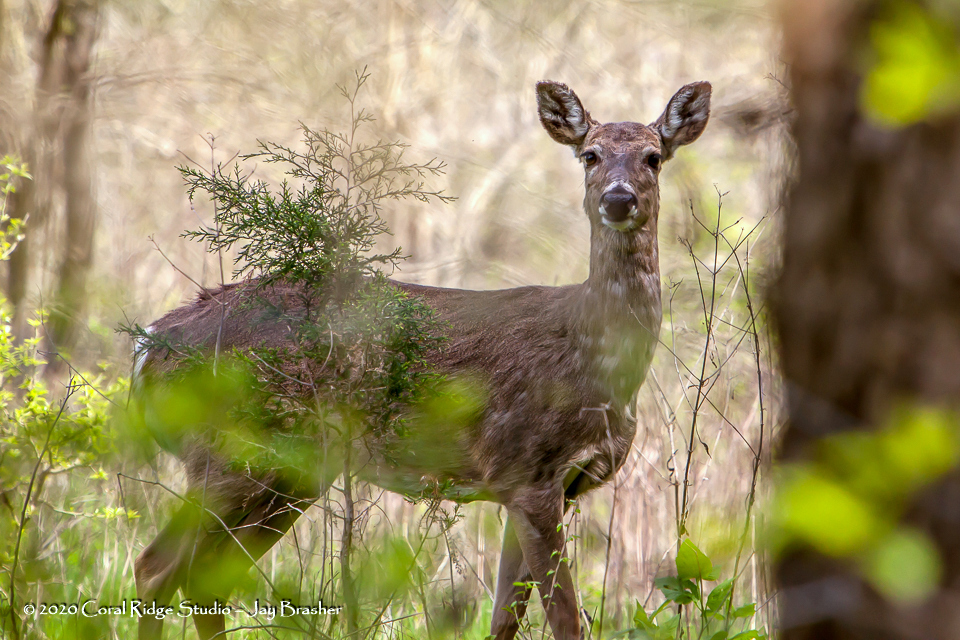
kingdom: Animalia
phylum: Chordata
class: Mammalia
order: Artiodactyla
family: Cervidae
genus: Odocoileus
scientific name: Odocoileus virginianus
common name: White-tailed deer
